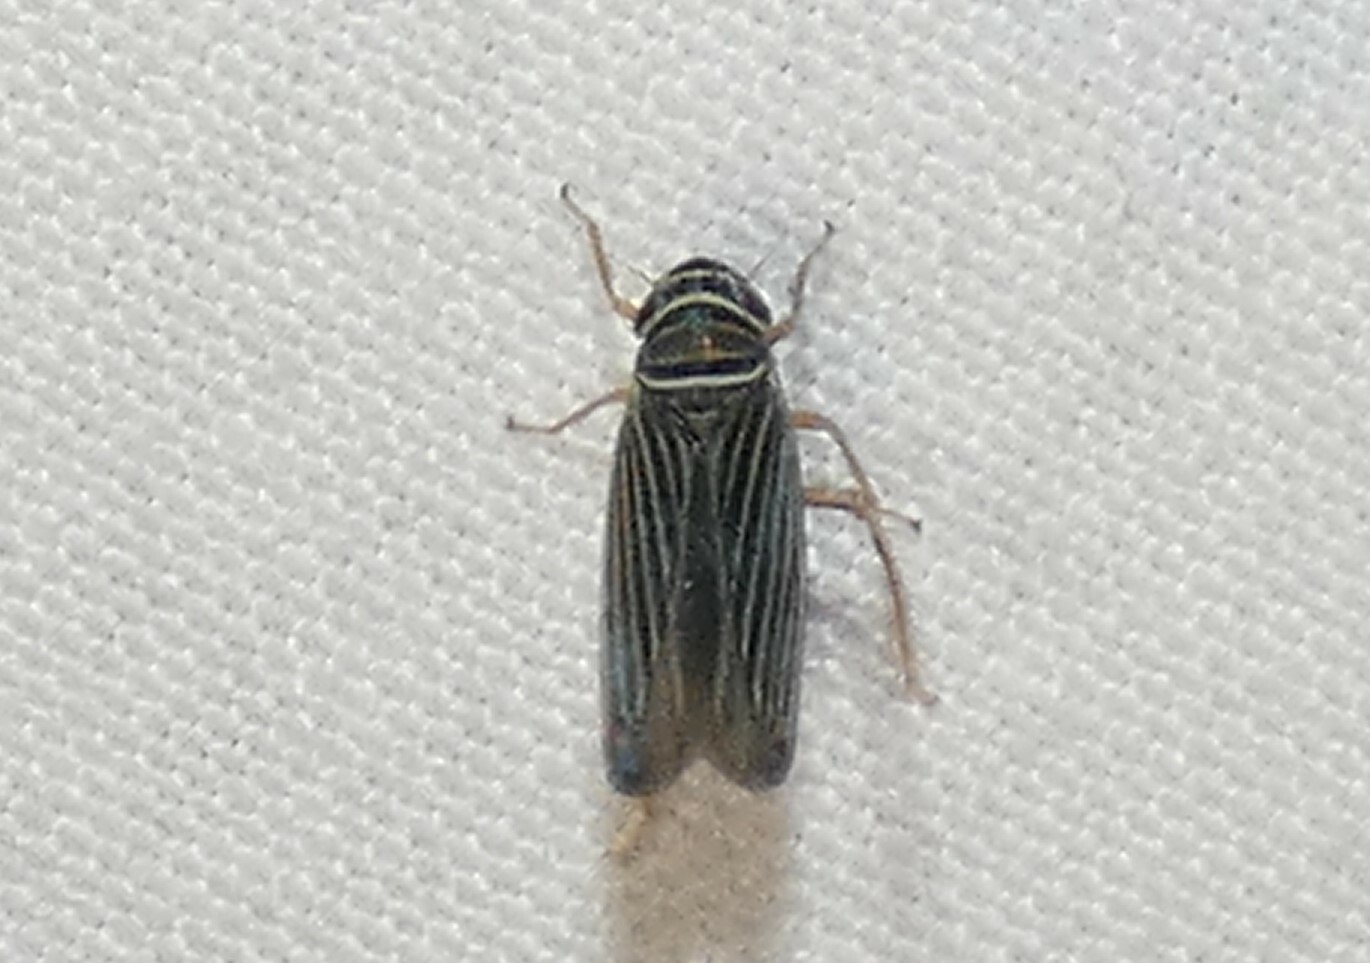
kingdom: Animalia
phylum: Arthropoda
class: Insecta
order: Hemiptera
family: Cicadellidae
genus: Tylozygus
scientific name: Tylozygus bifidus
